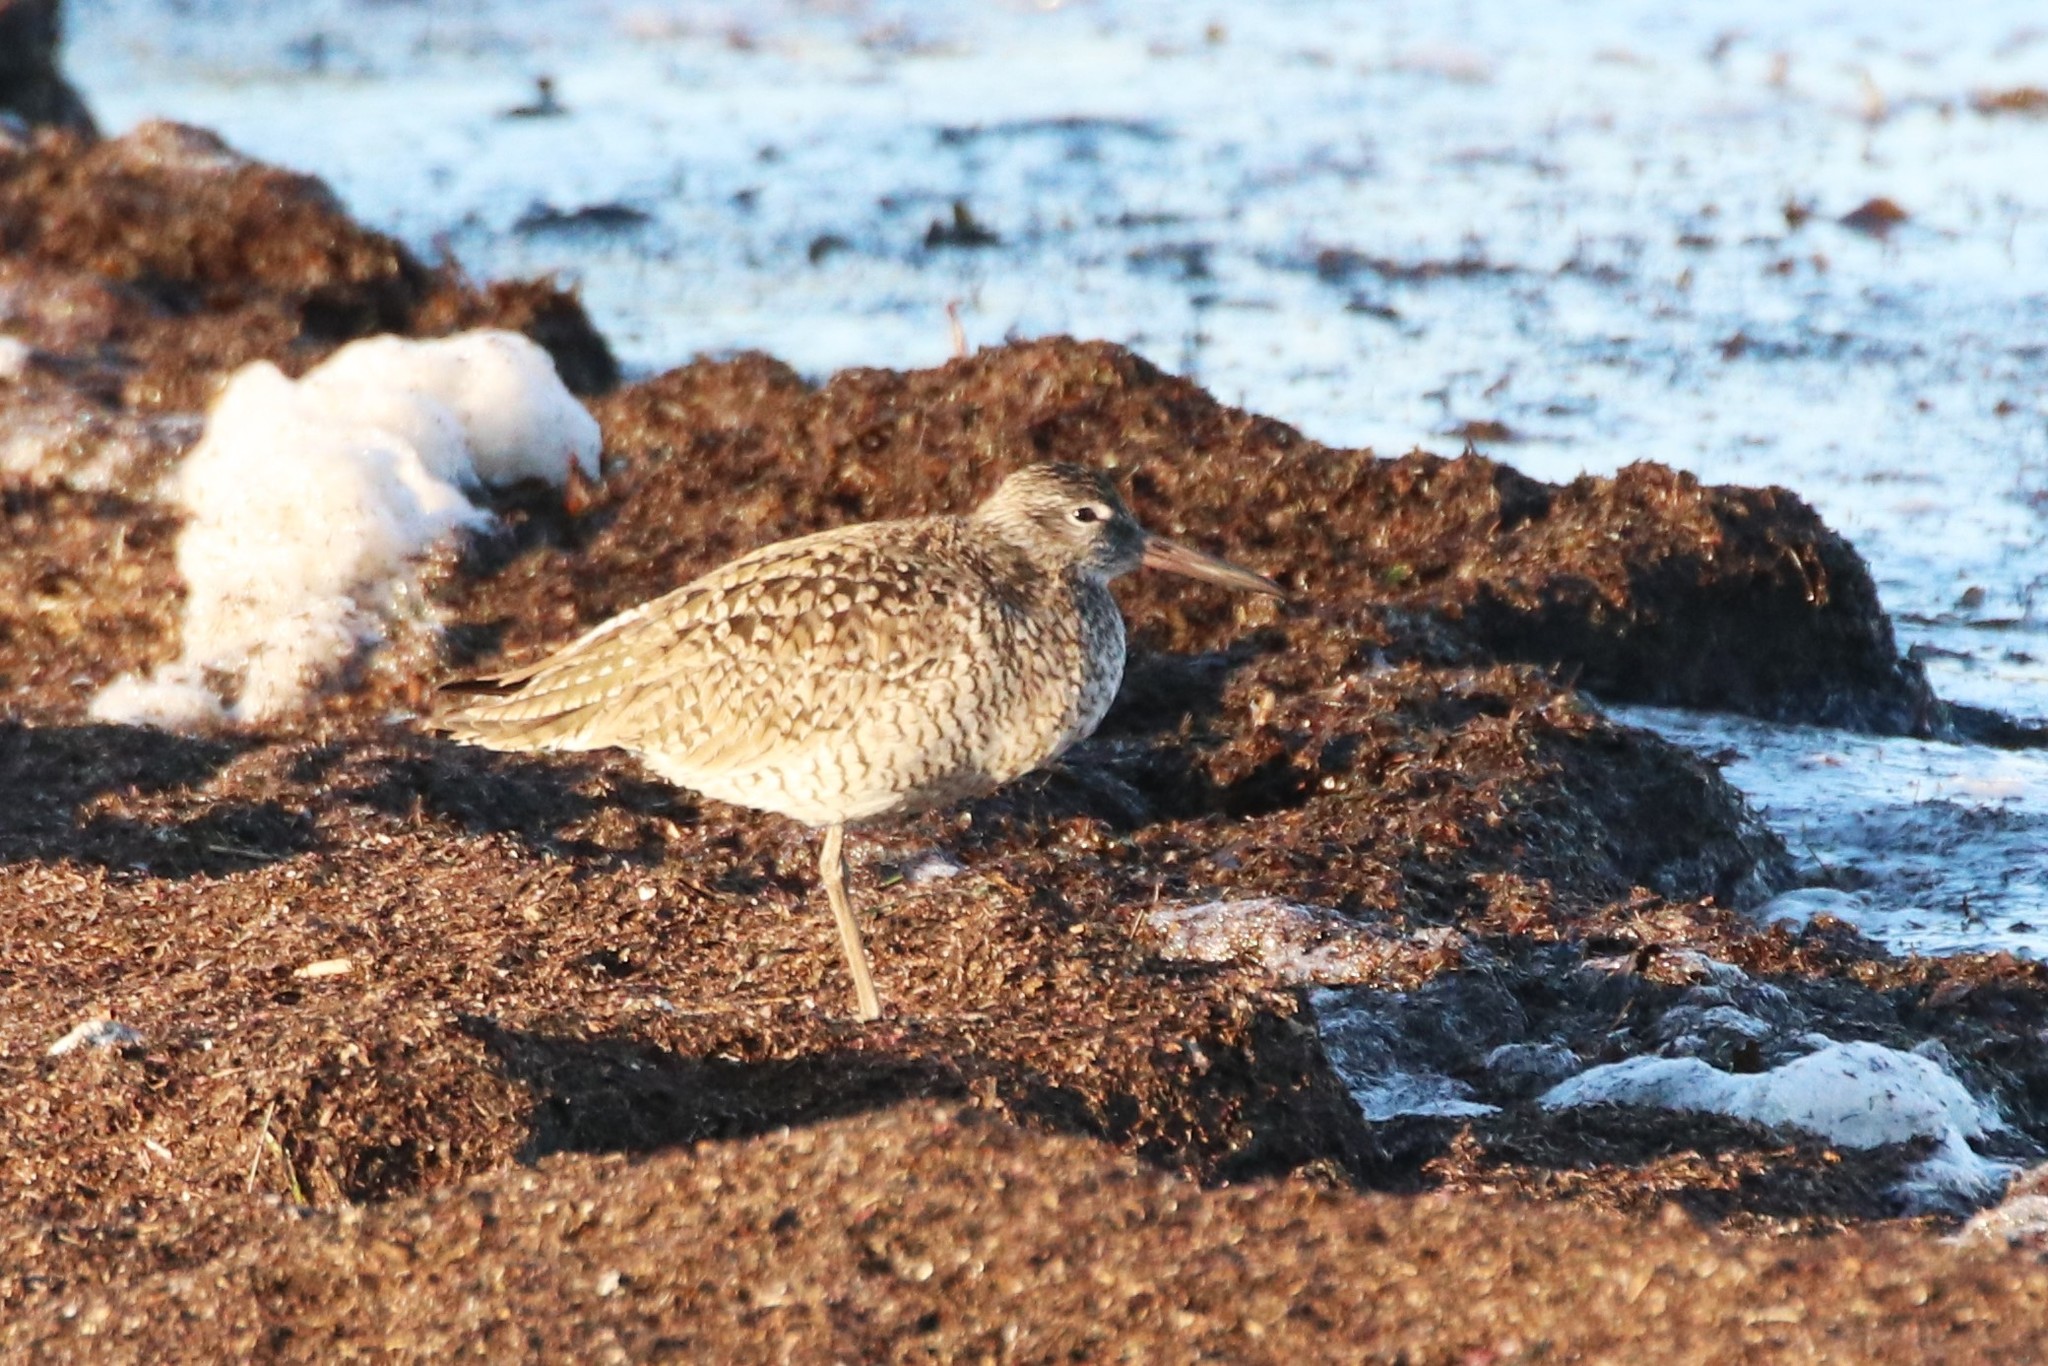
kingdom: Animalia
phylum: Chordata
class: Aves
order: Charadriiformes
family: Scolopacidae
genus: Tringa
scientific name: Tringa semipalmata
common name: Willet
